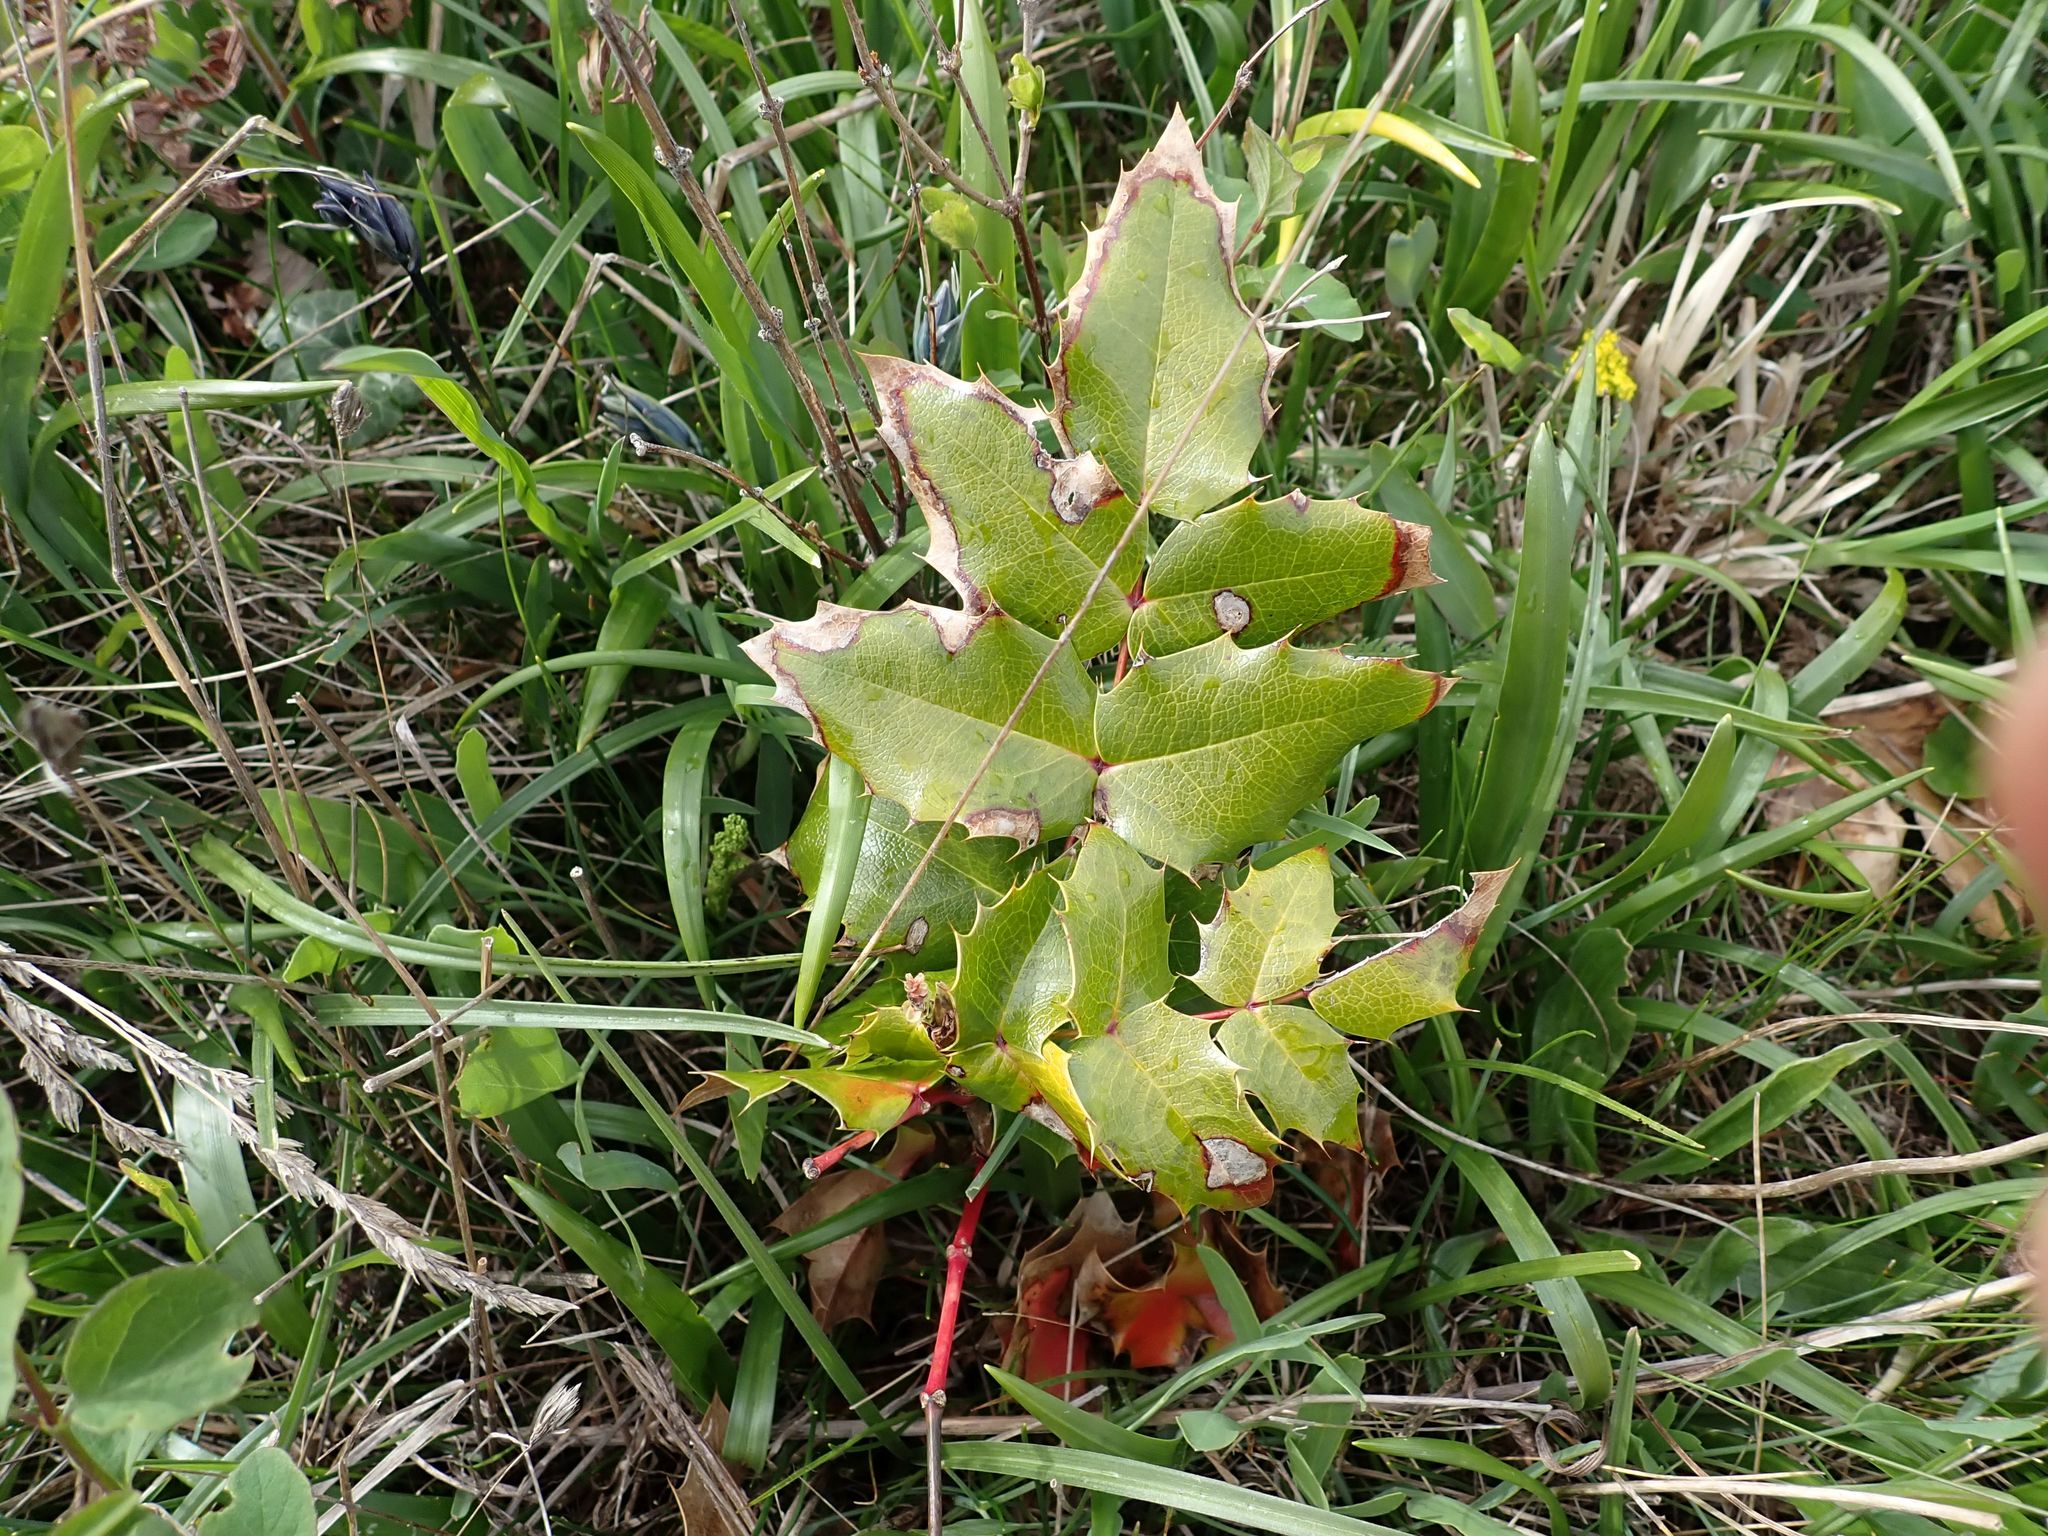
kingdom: Plantae
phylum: Tracheophyta
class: Magnoliopsida
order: Ranunculales
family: Berberidaceae
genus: Mahonia
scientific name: Mahonia aquifolium
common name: Oregon-grape
